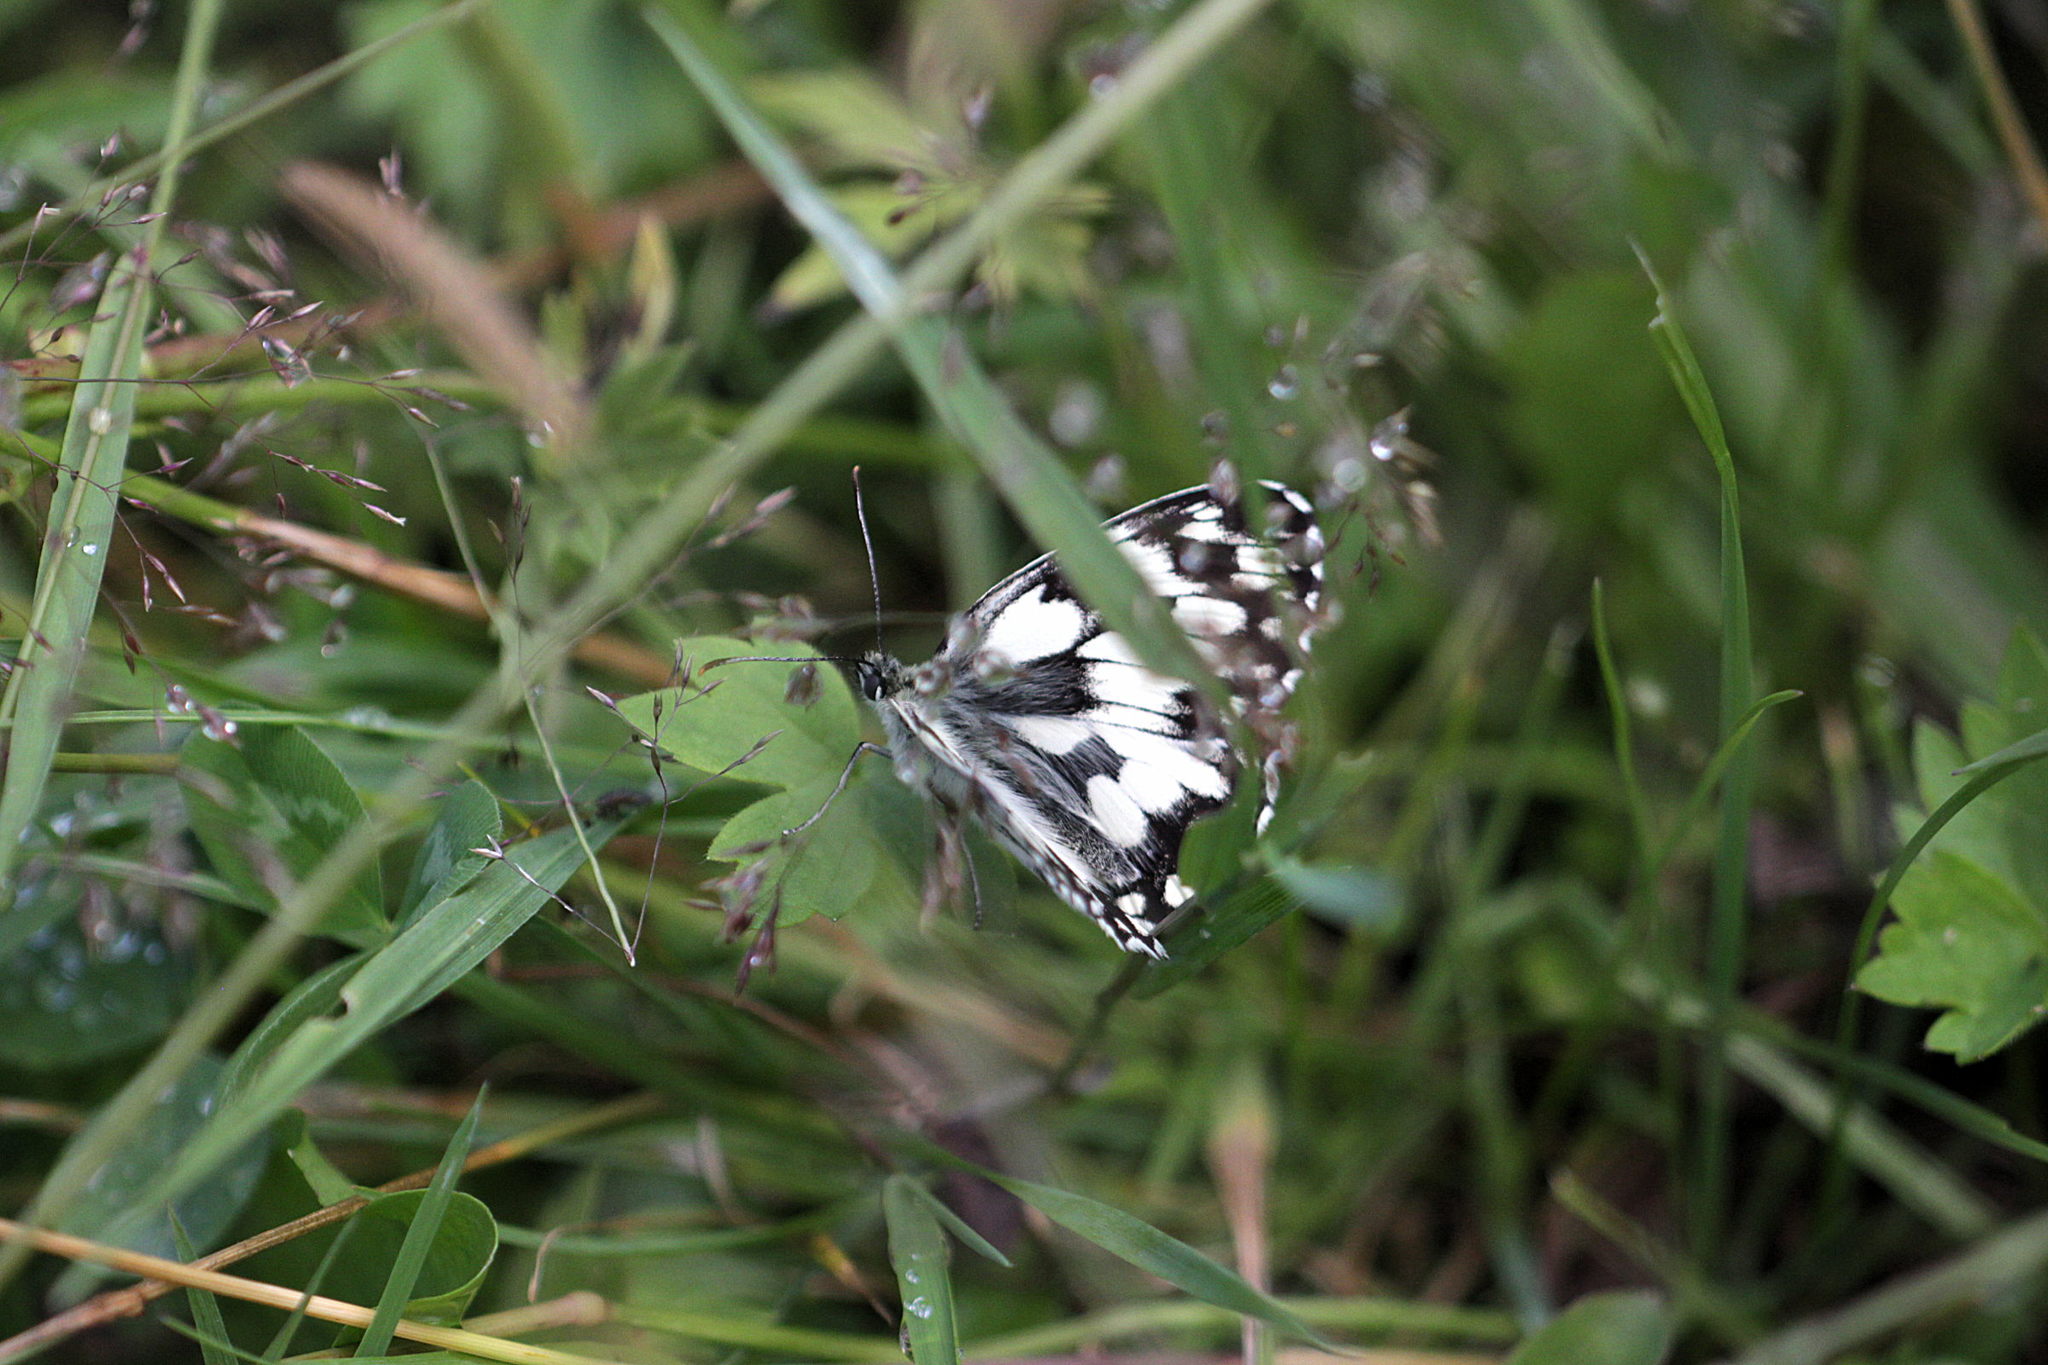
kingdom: Animalia
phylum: Arthropoda
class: Insecta
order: Lepidoptera
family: Nymphalidae
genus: Melanargia
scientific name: Melanargia galathea
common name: Marbled white
